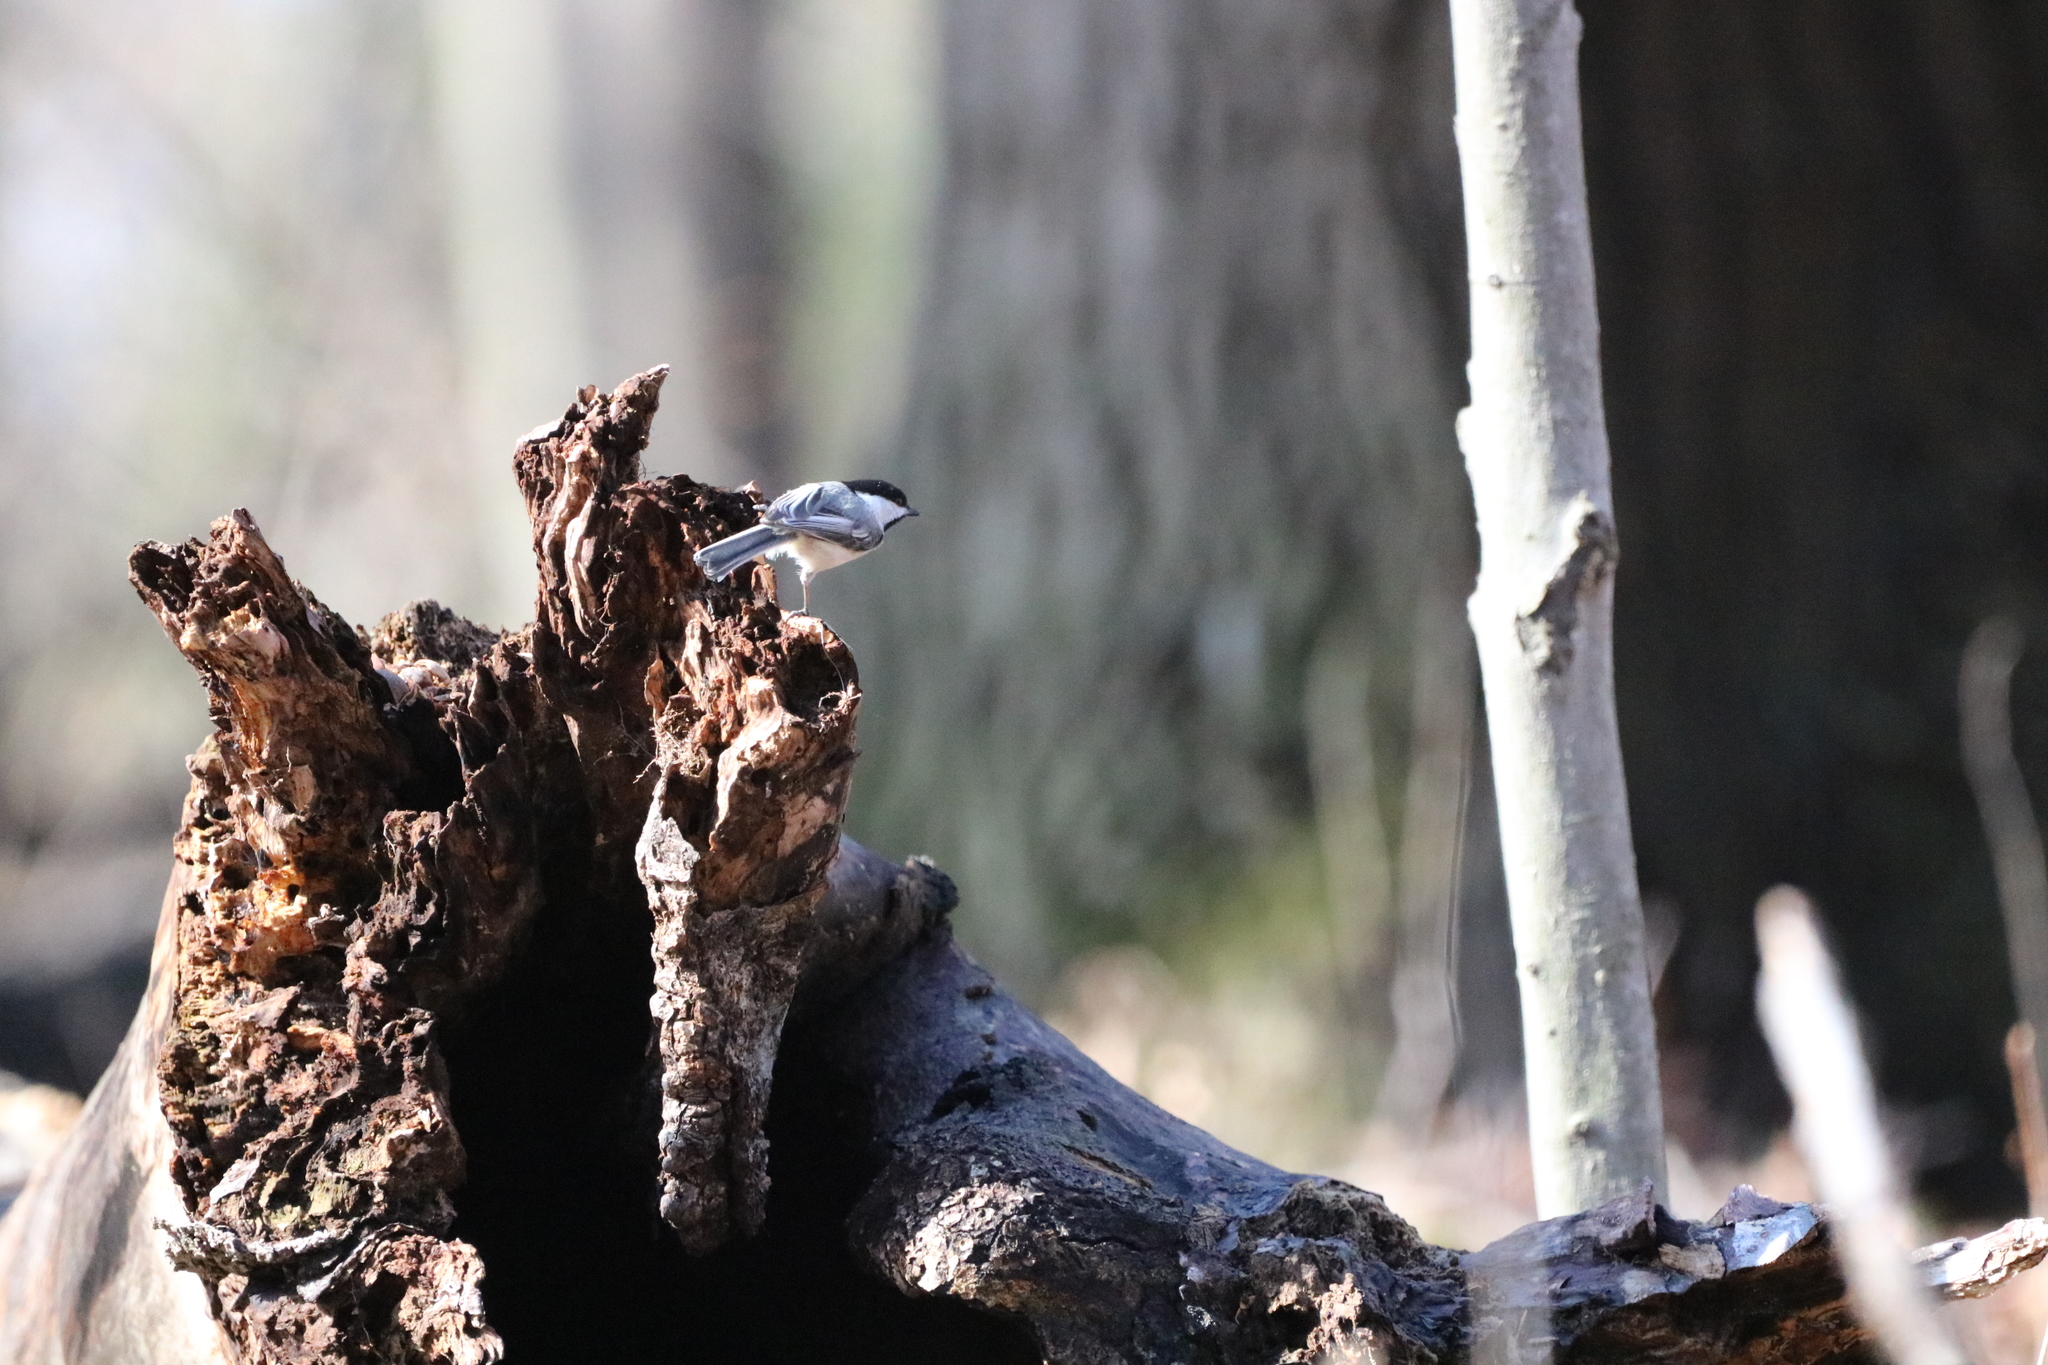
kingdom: Animalia
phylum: Chordata
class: Aves
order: Passeriformes
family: Paridae
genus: Poecile
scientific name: Poecile atricapillus
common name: Black-capped chickadee
